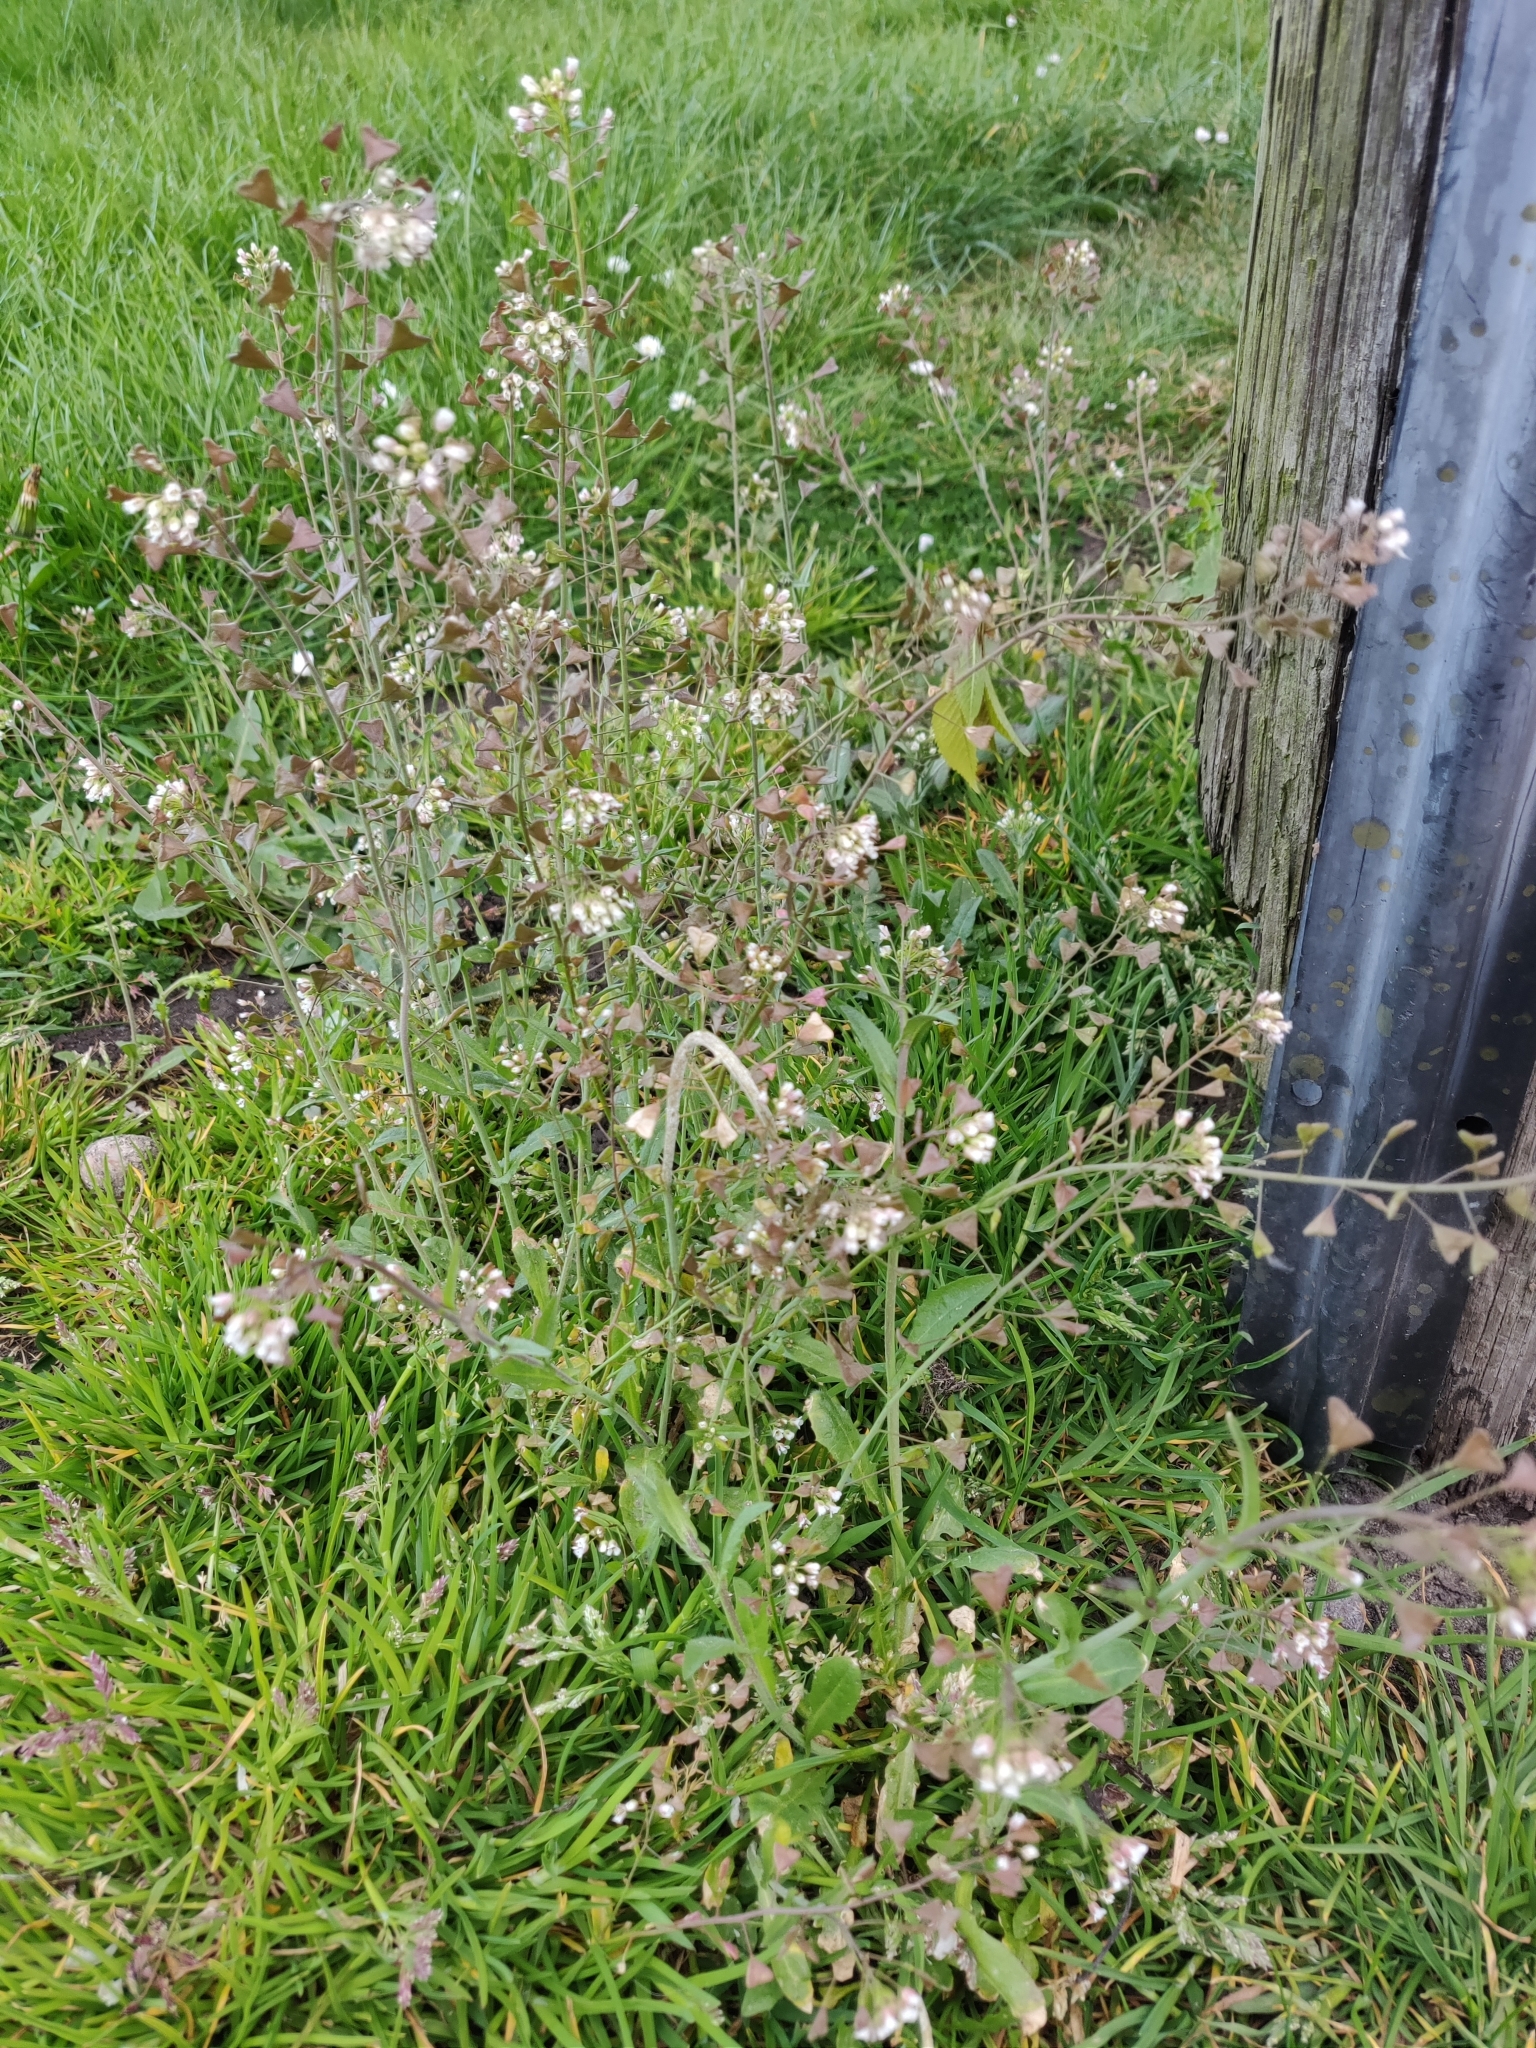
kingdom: Plantae
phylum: Tracheophyta
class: Magnoliopsida
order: Brassicales
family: Brassicaceae
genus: Capsella
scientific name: Capsella bursa-pastoris
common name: Shepherd's purse
